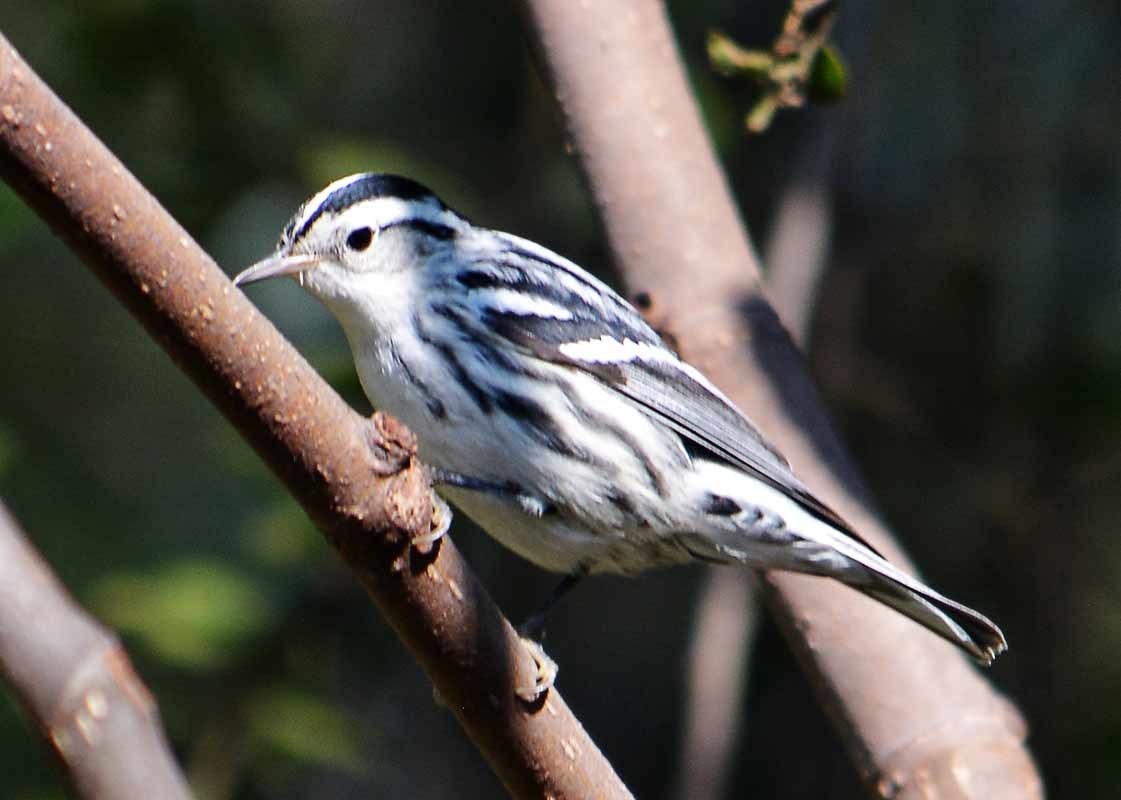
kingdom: Animalia
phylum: Chordata
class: Aves
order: Passeriformes
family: Parulidae
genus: Mniotilta
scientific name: Mniotilta varia
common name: Black-and-white warbler
